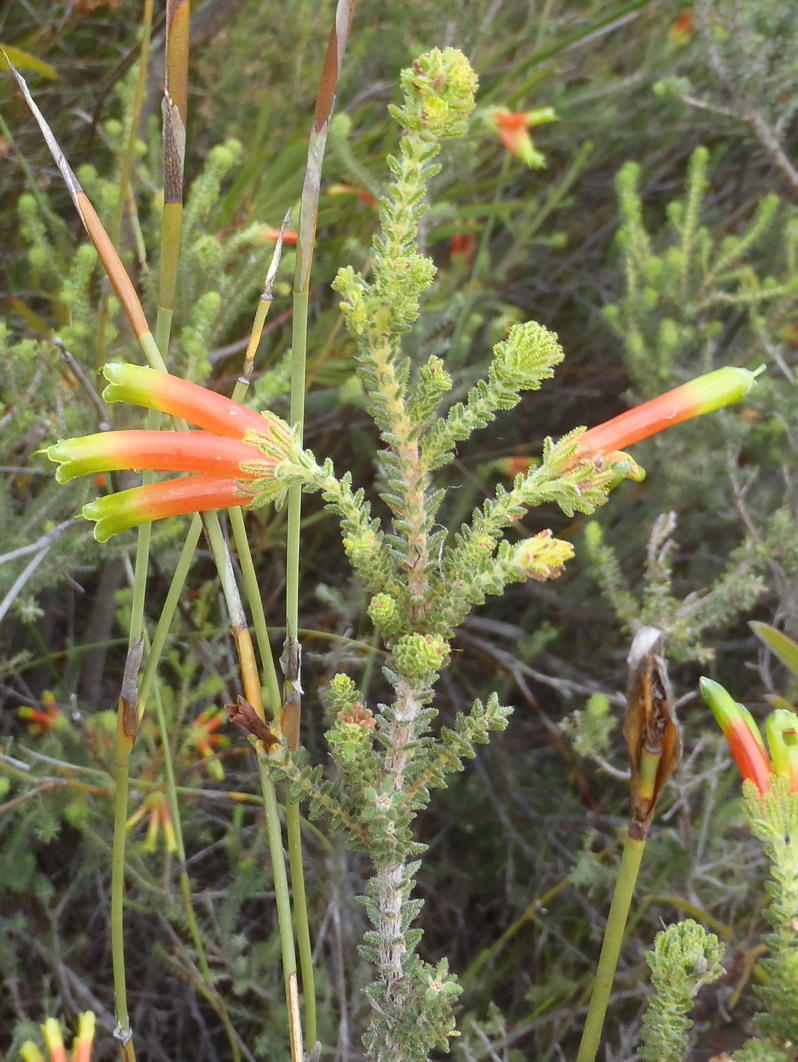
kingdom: Plantae
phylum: Tracheophyta
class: Magnoliopsida
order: Ericales
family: Ericaceae
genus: Erica
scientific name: Erica croceovirens
